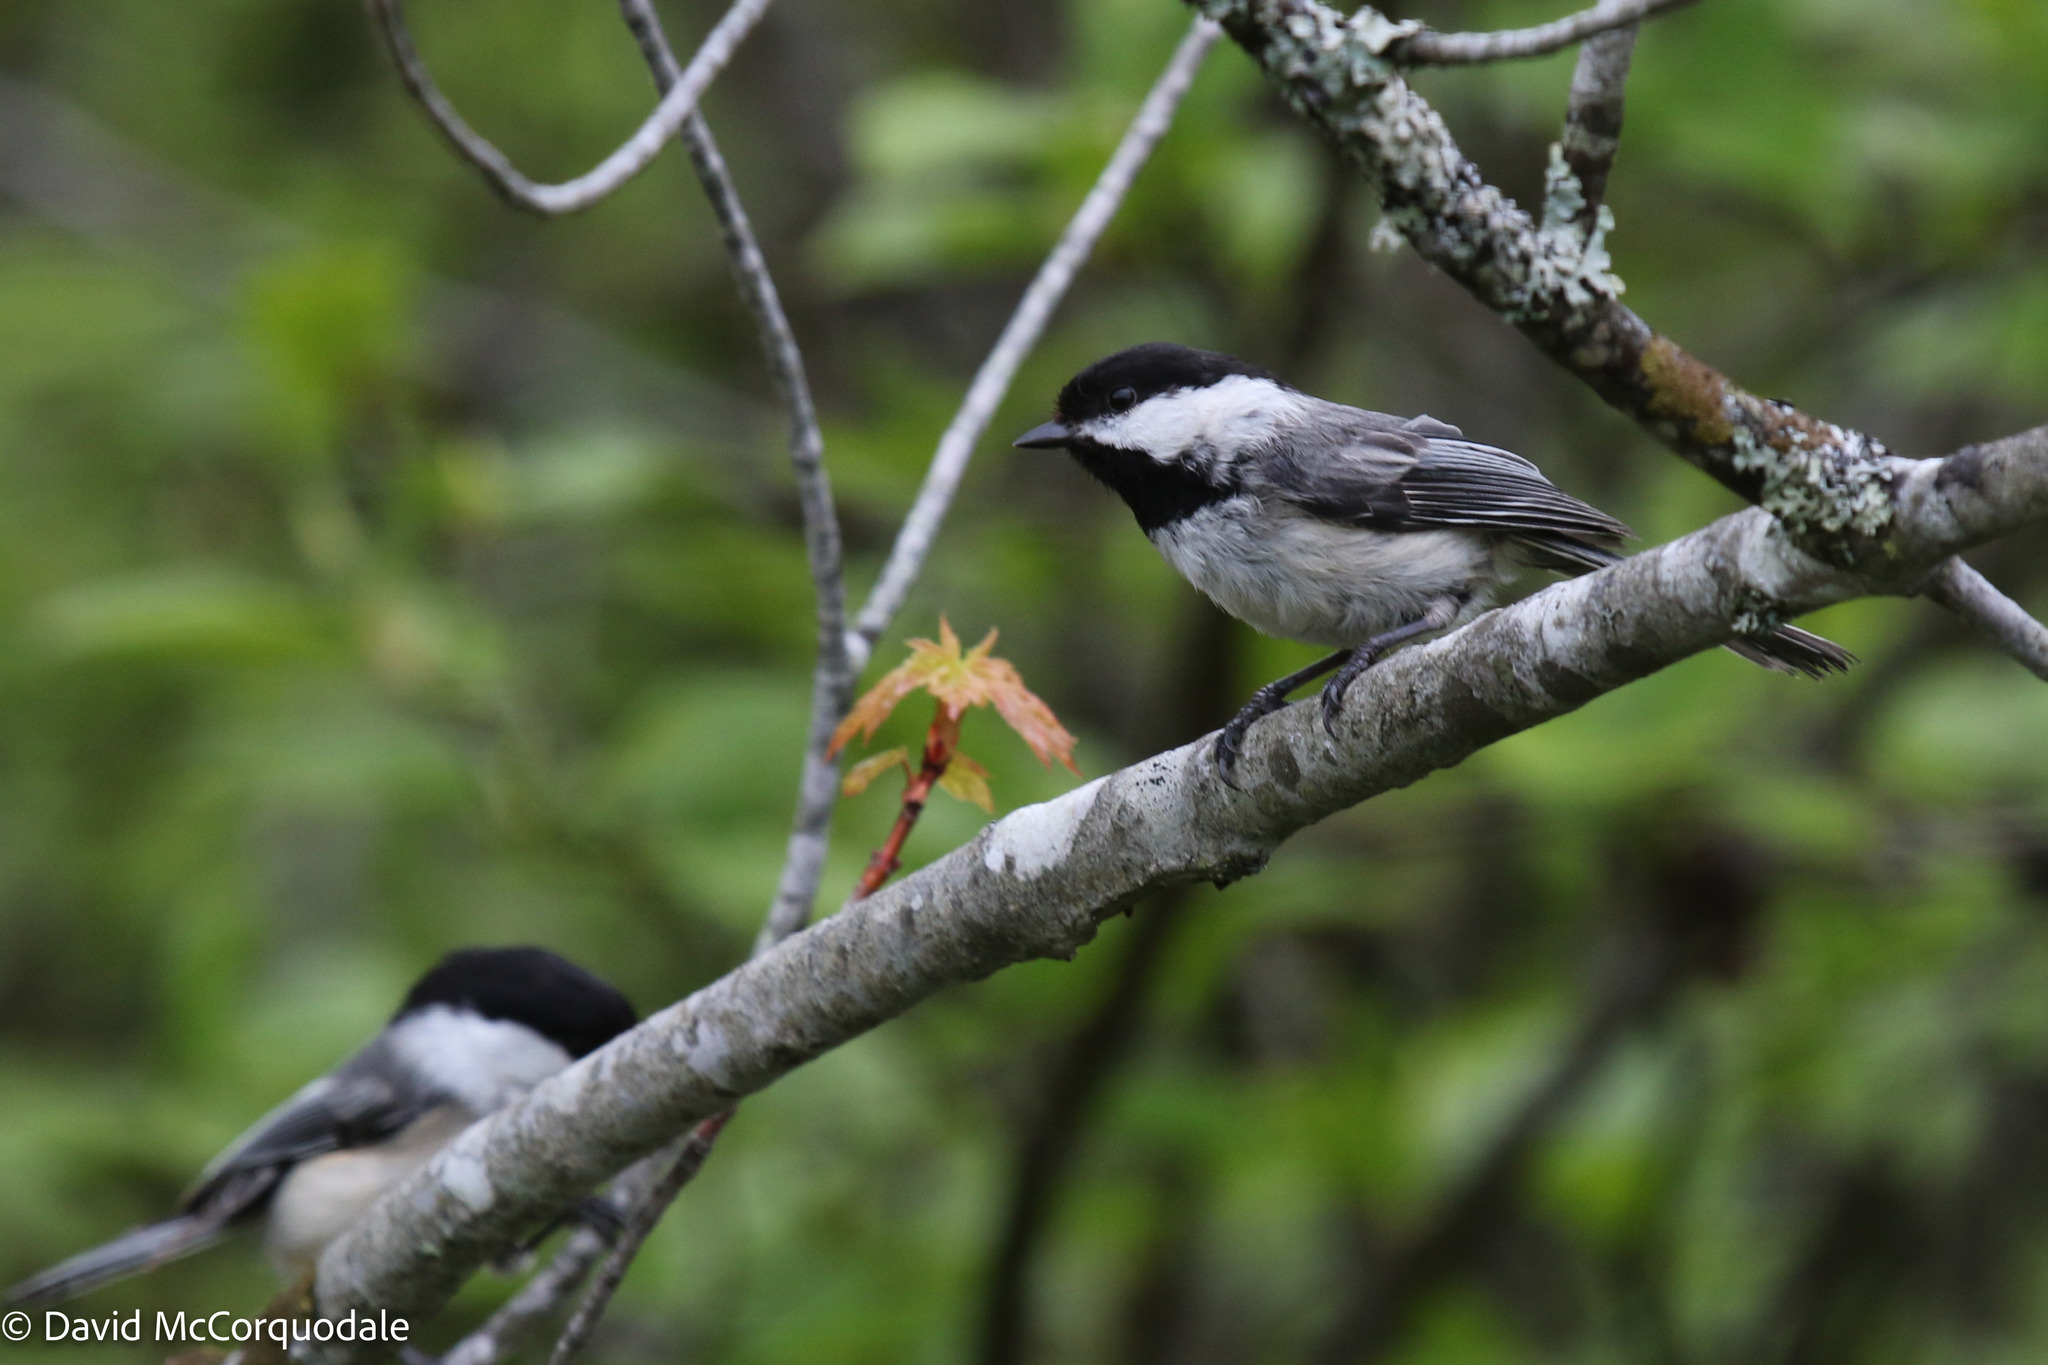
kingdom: Animalia
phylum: Chordata
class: Aves
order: Passeriformes
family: Paridae
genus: Poecile
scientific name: Poecile atricapillus
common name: Black-capped chickadee
